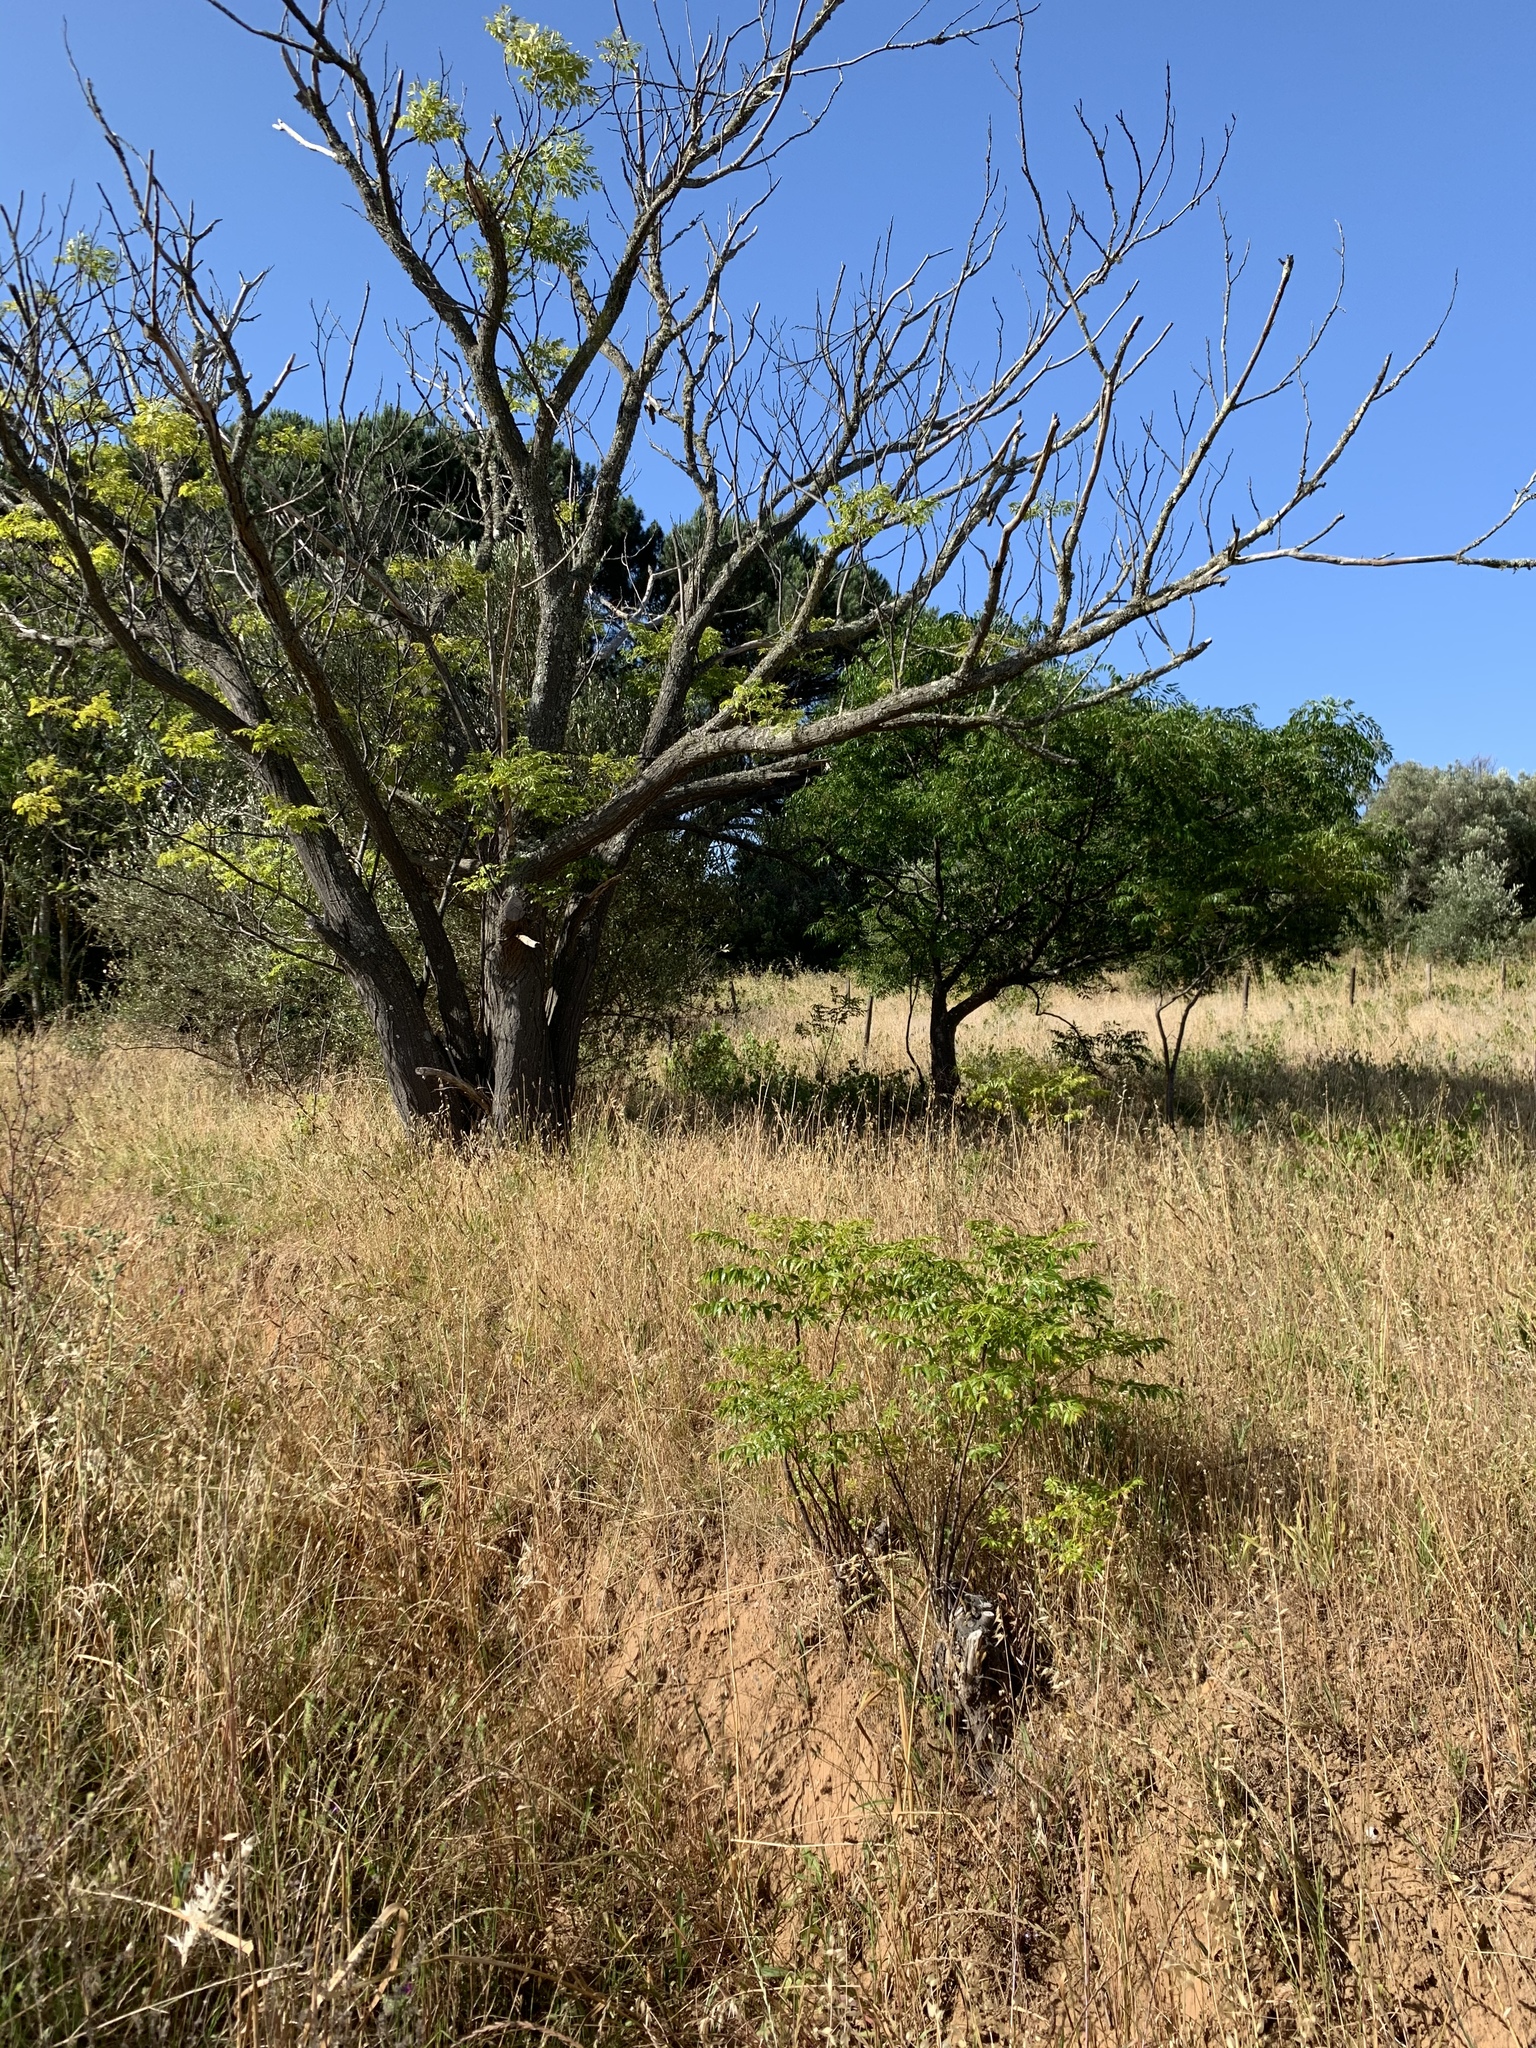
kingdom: Plantae
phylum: Tracheophyta
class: Magnoliopsida
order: Sapindales
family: Meliaceae
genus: Melia
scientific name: Melia azedarach
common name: Chinaberrytree
